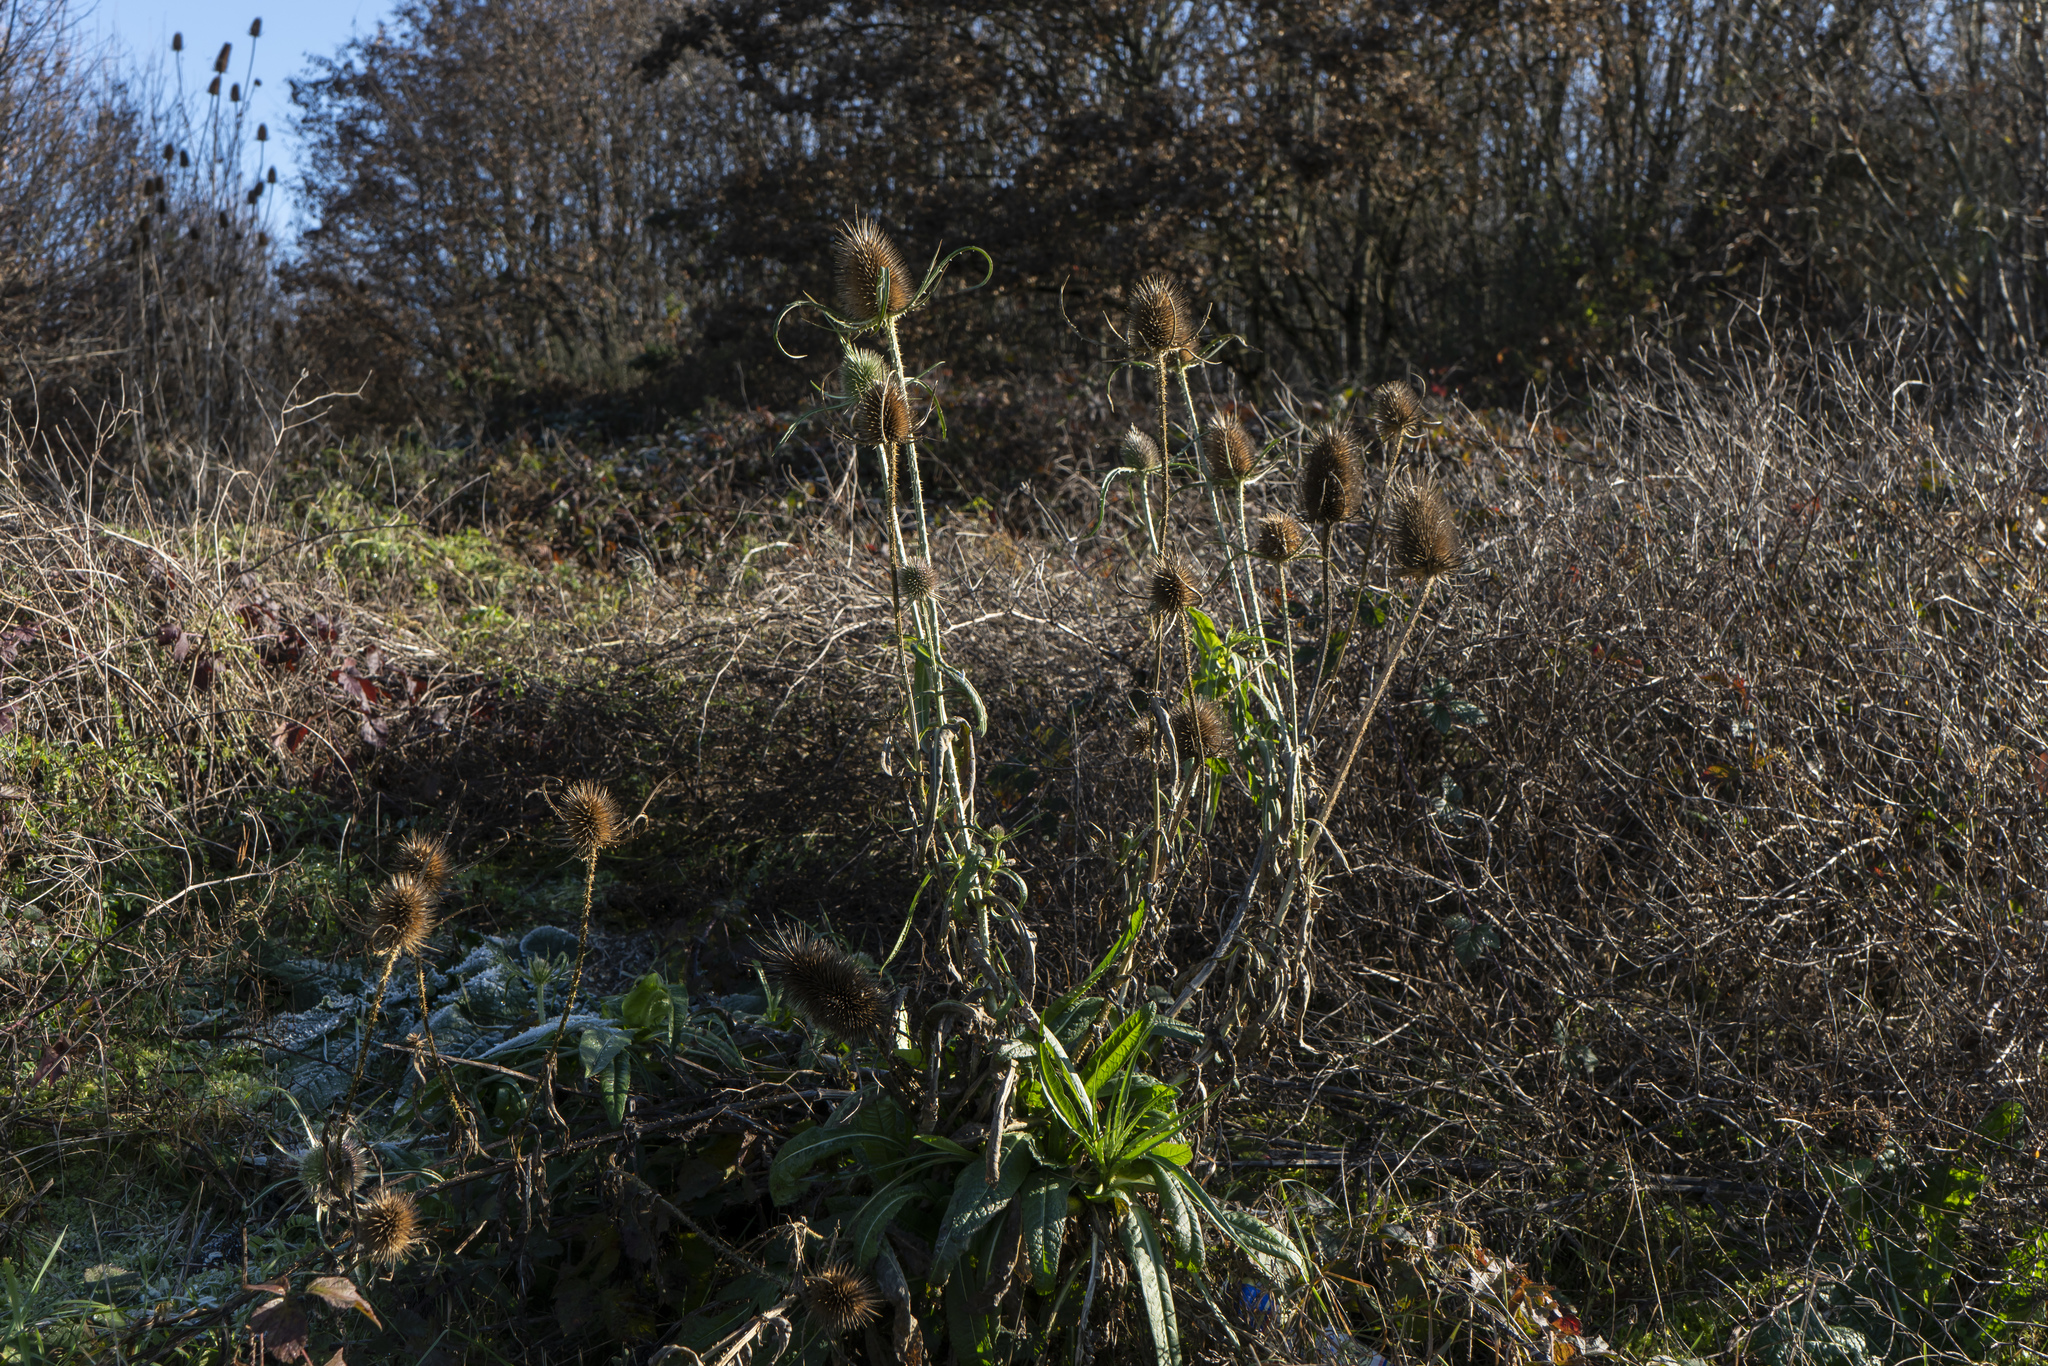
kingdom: Plantae
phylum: Tracheophyta
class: Magnoliopsida
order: Dipsacales
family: Caprifoliaceae
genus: Dipsacus
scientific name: Dipsacus fullonum
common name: Teasel
